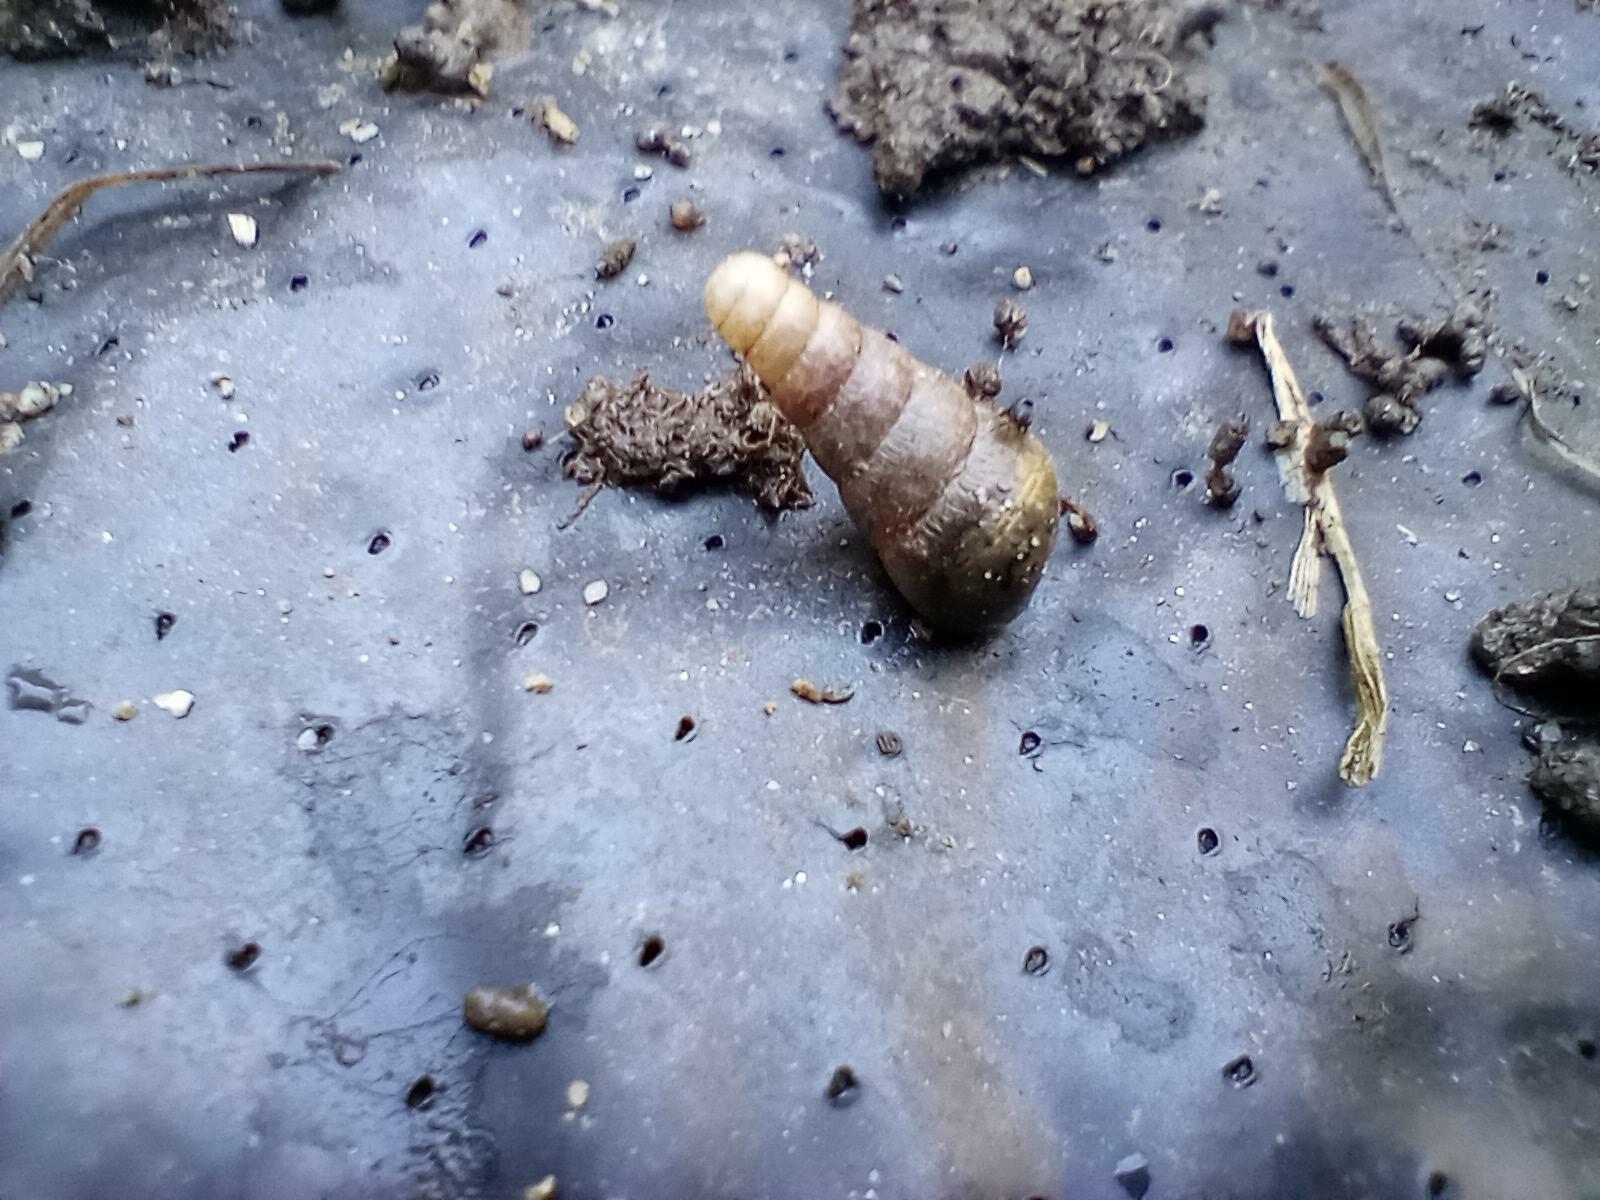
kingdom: Animalia
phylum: Mollusca
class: Gastropoda
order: Stylommatophora
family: Achatinidae
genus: Rumina
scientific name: Rumina decollata
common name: Decollate snail
